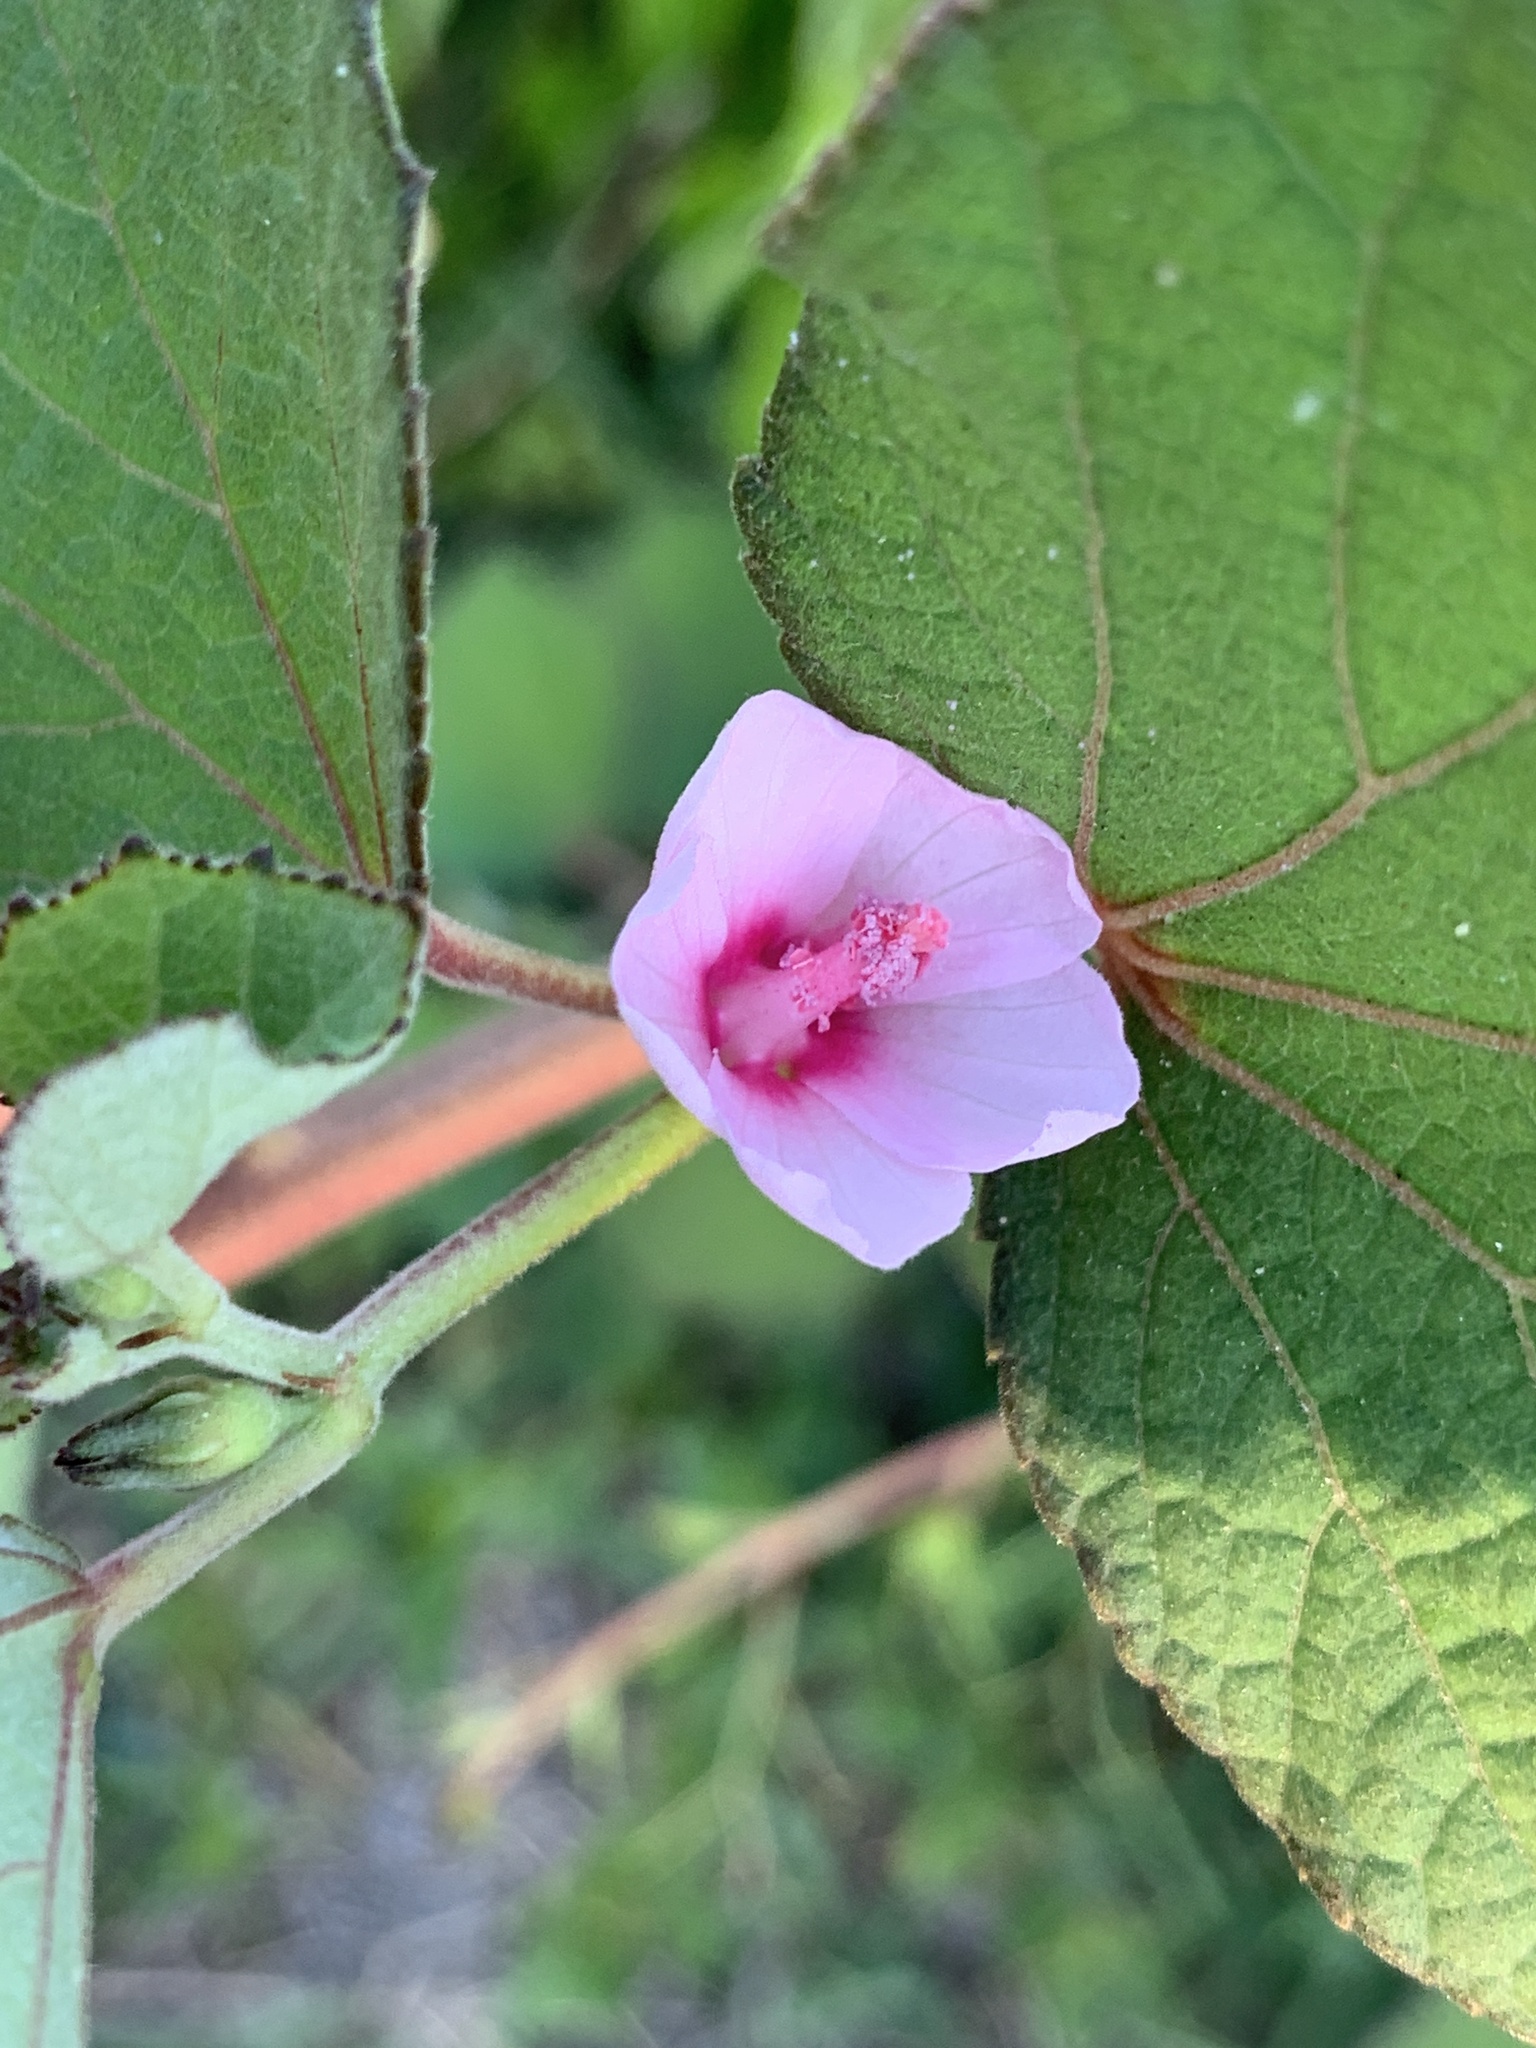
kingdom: Plantae
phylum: Tracheophyta
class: Magnoliopsida
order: Malvales
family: Malvaceae
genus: Urena
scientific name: Urena lobata
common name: Caesarweed
